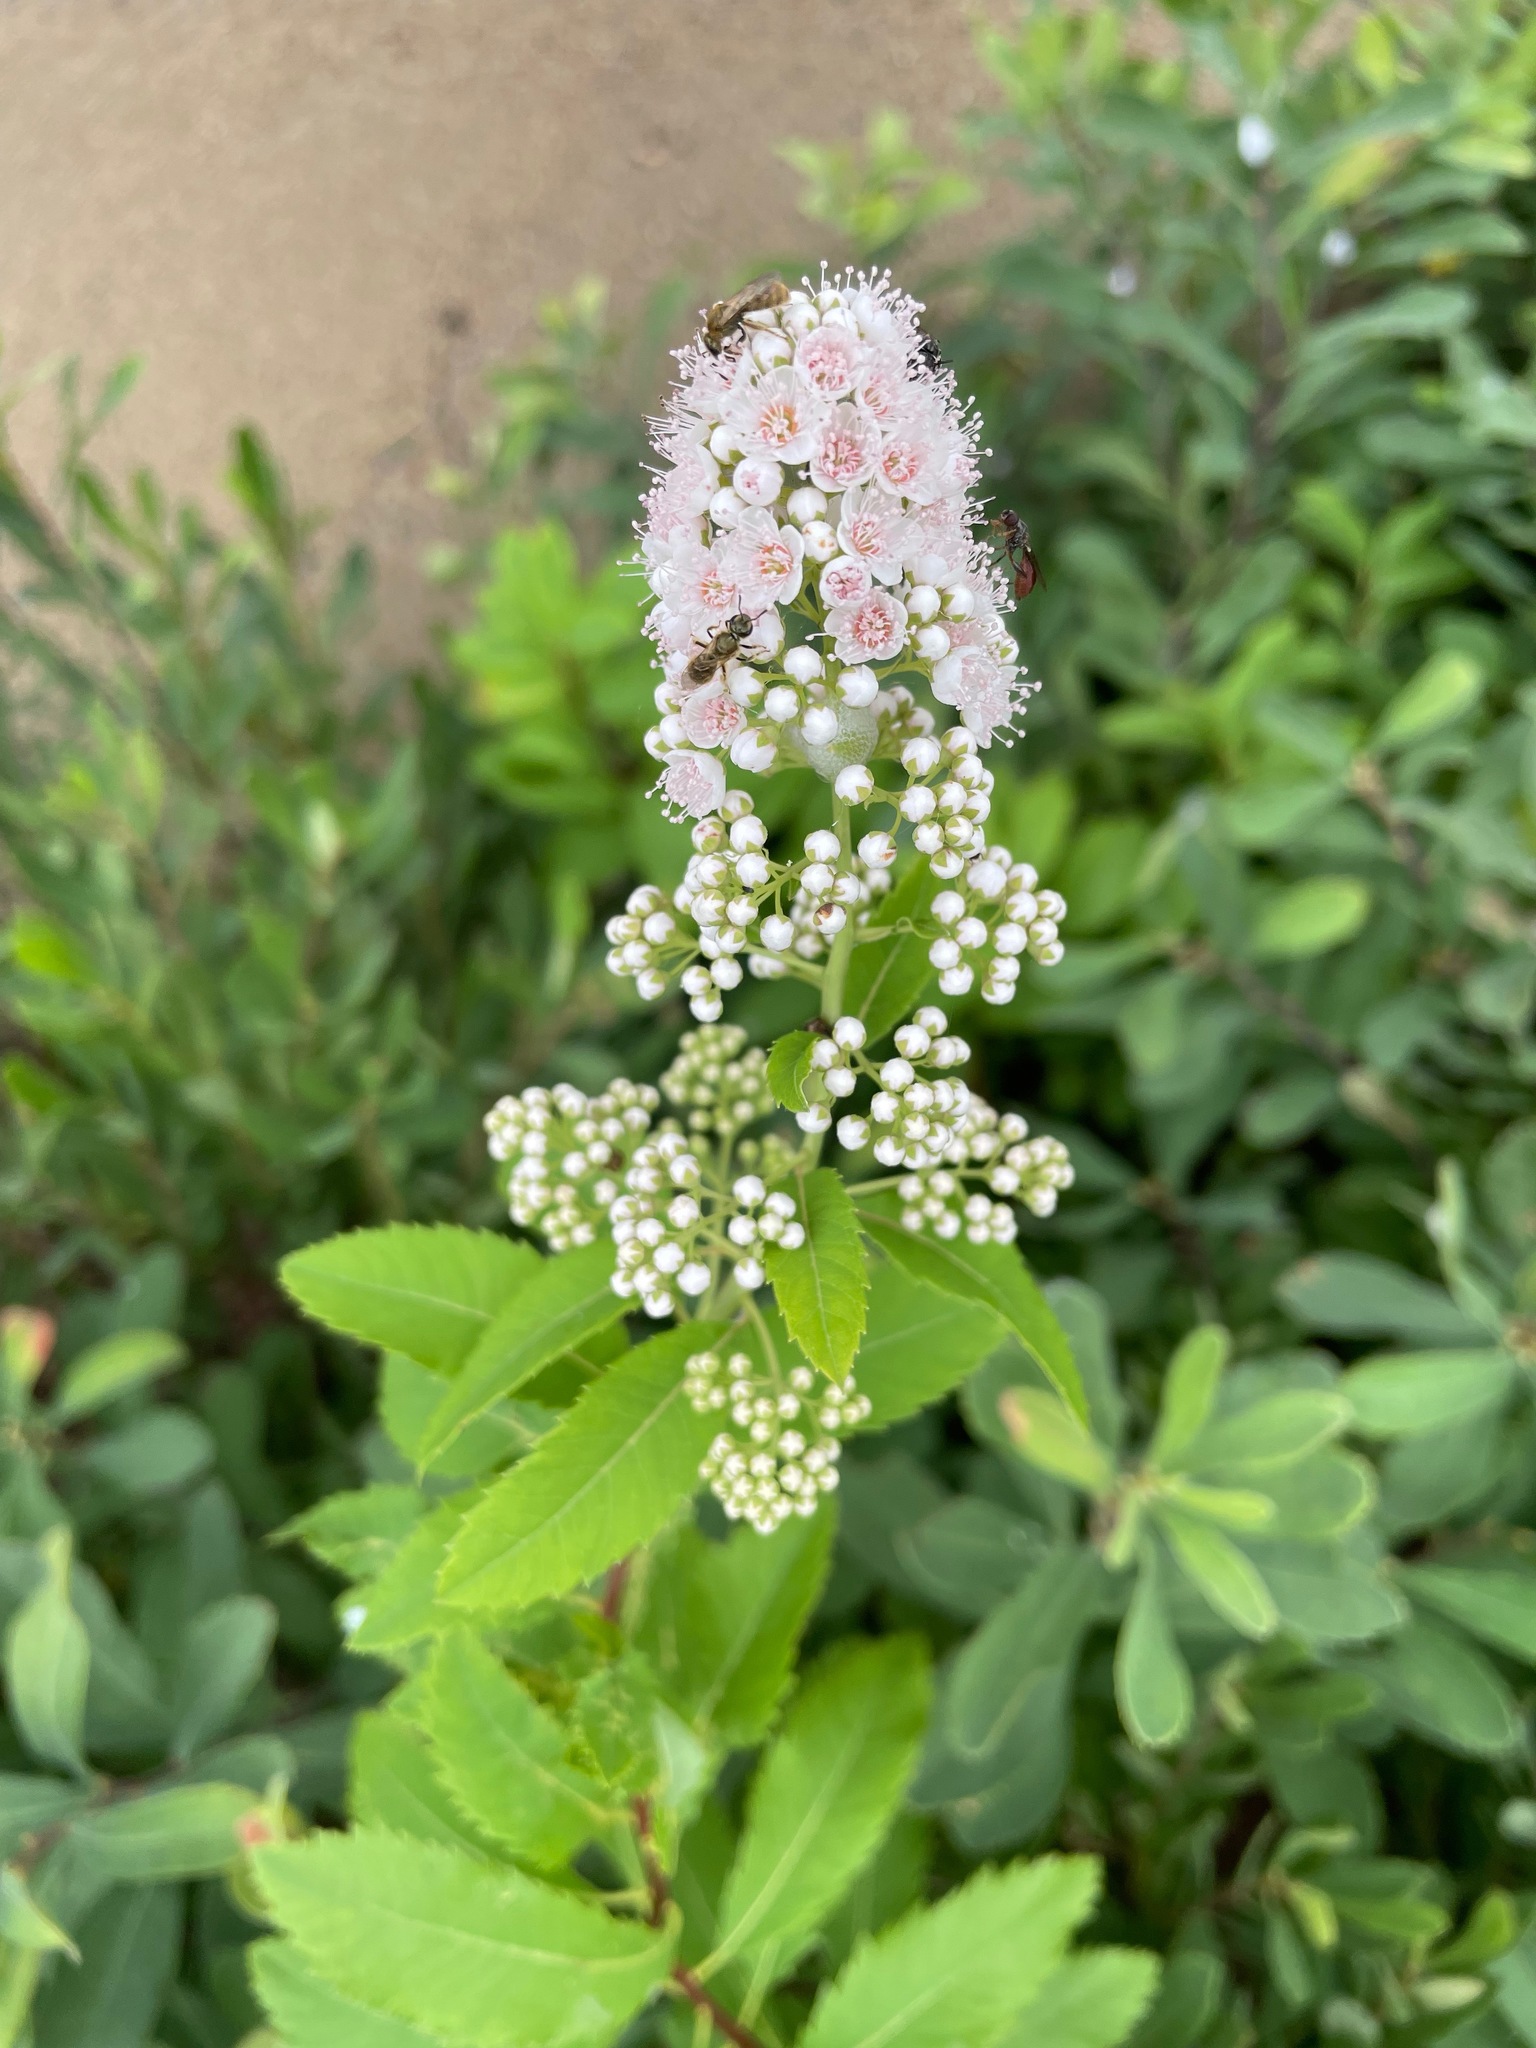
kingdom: Plantae
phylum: Tracheophyta
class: Magnoliopsida
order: Rosales
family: Rosaceae
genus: Spiraea
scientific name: Spiraea alba
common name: Pale bridewort
